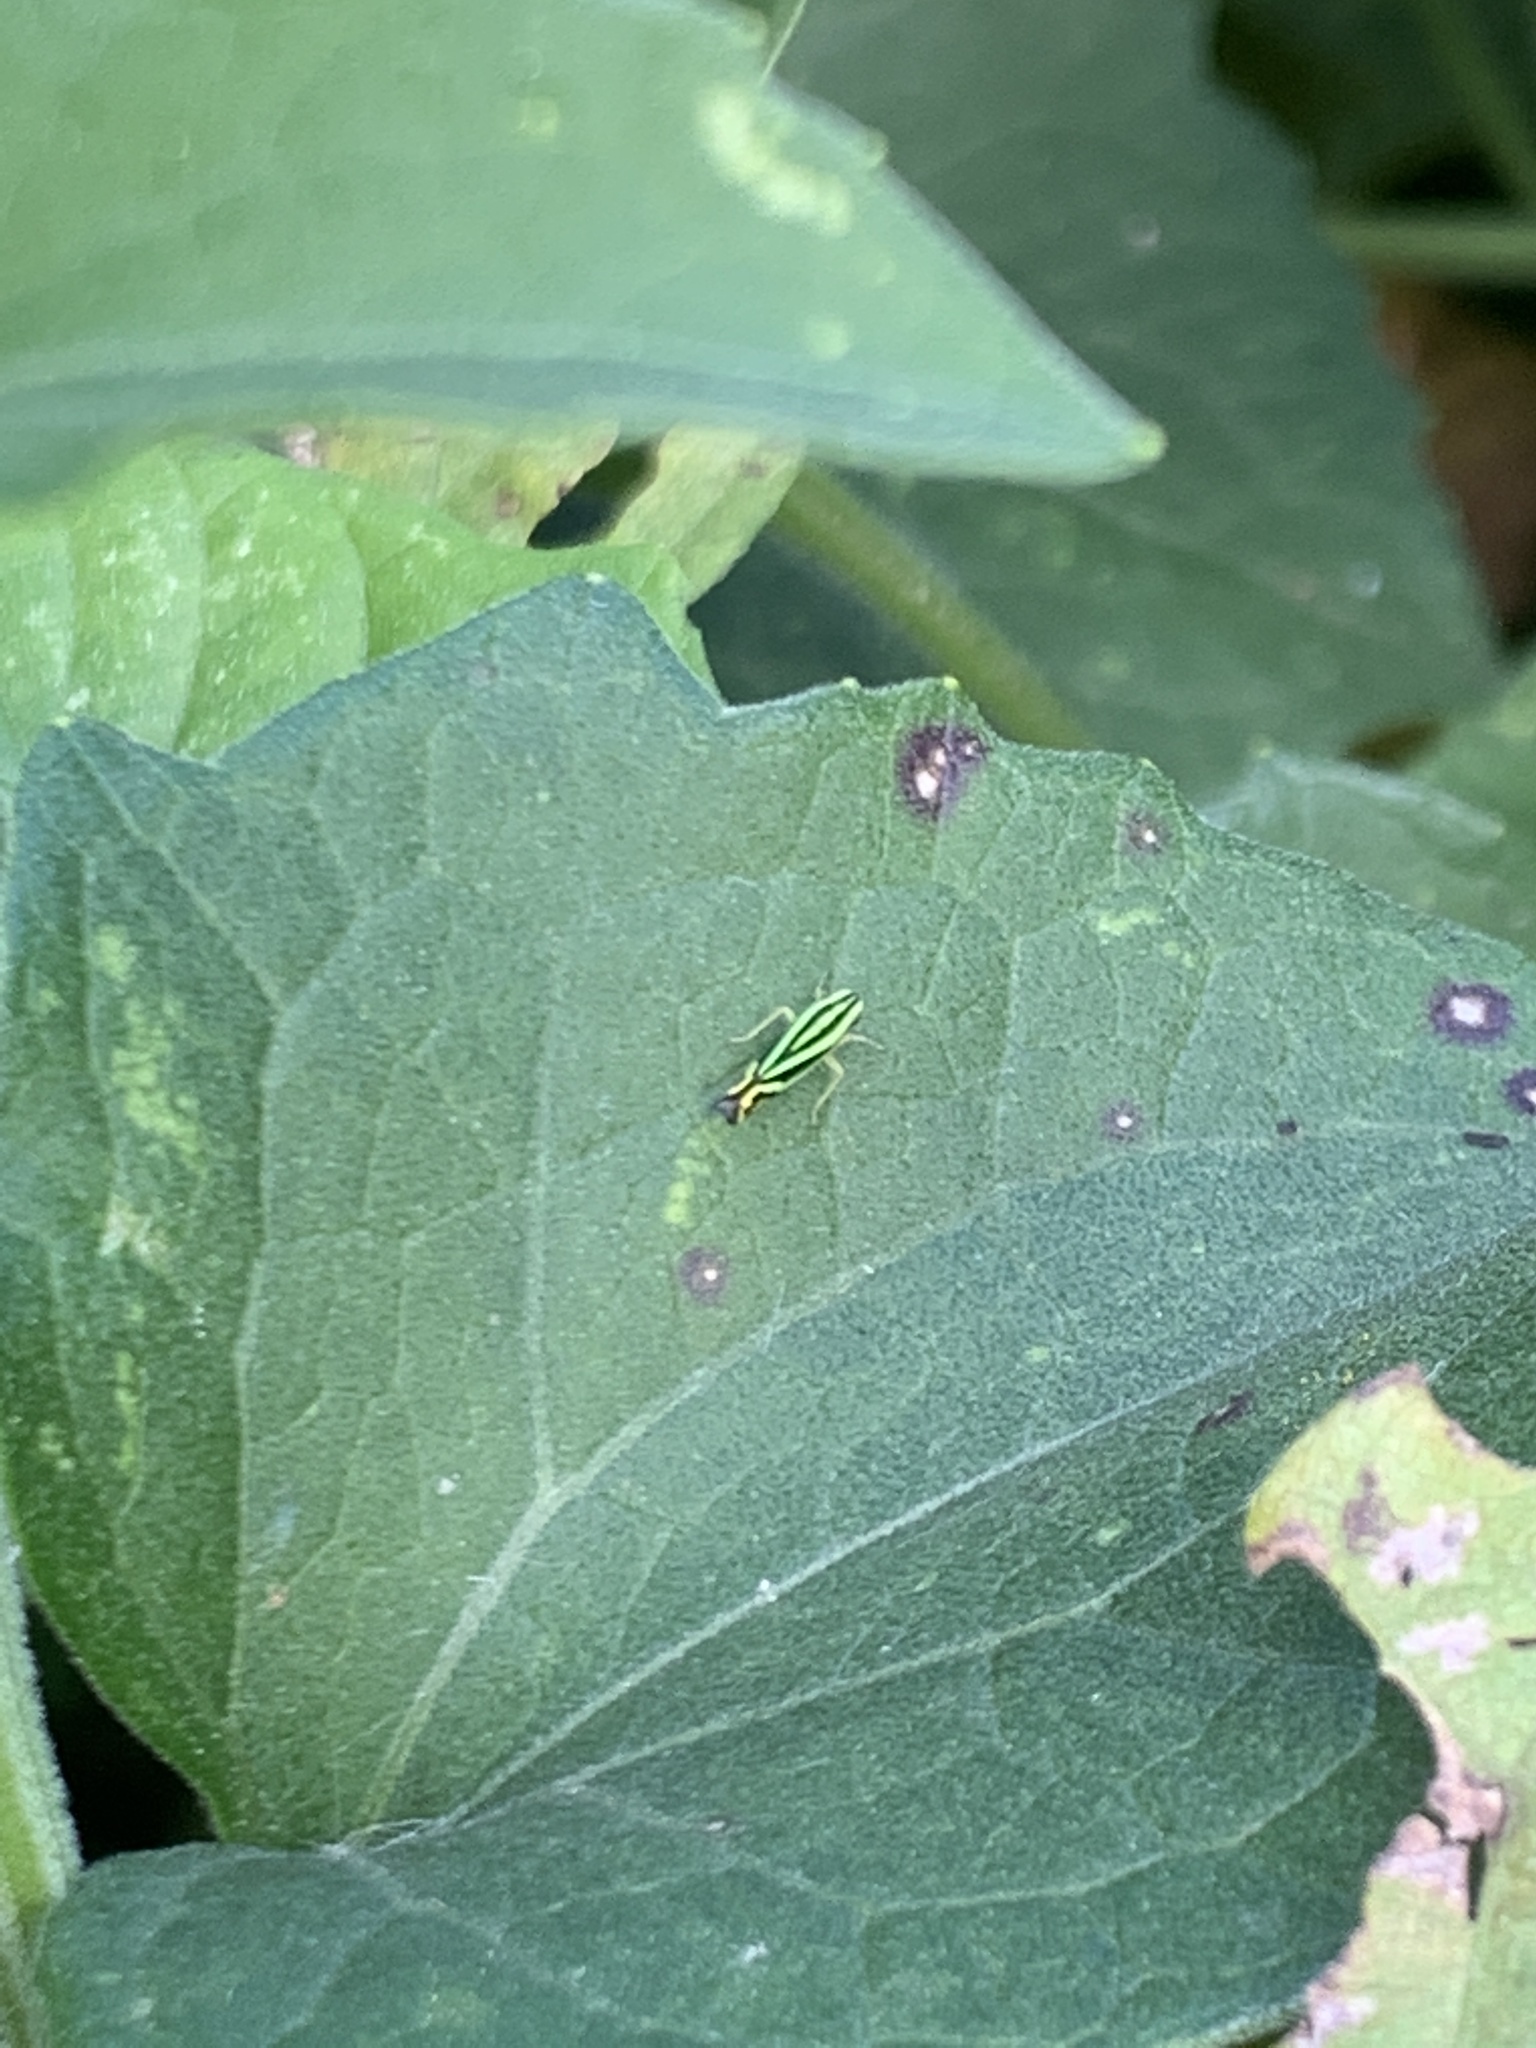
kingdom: Animalia
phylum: Arthropoda
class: Insecta
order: Hemiptera
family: Cicadellidae
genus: Sibovia
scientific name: Sibovia sagata
